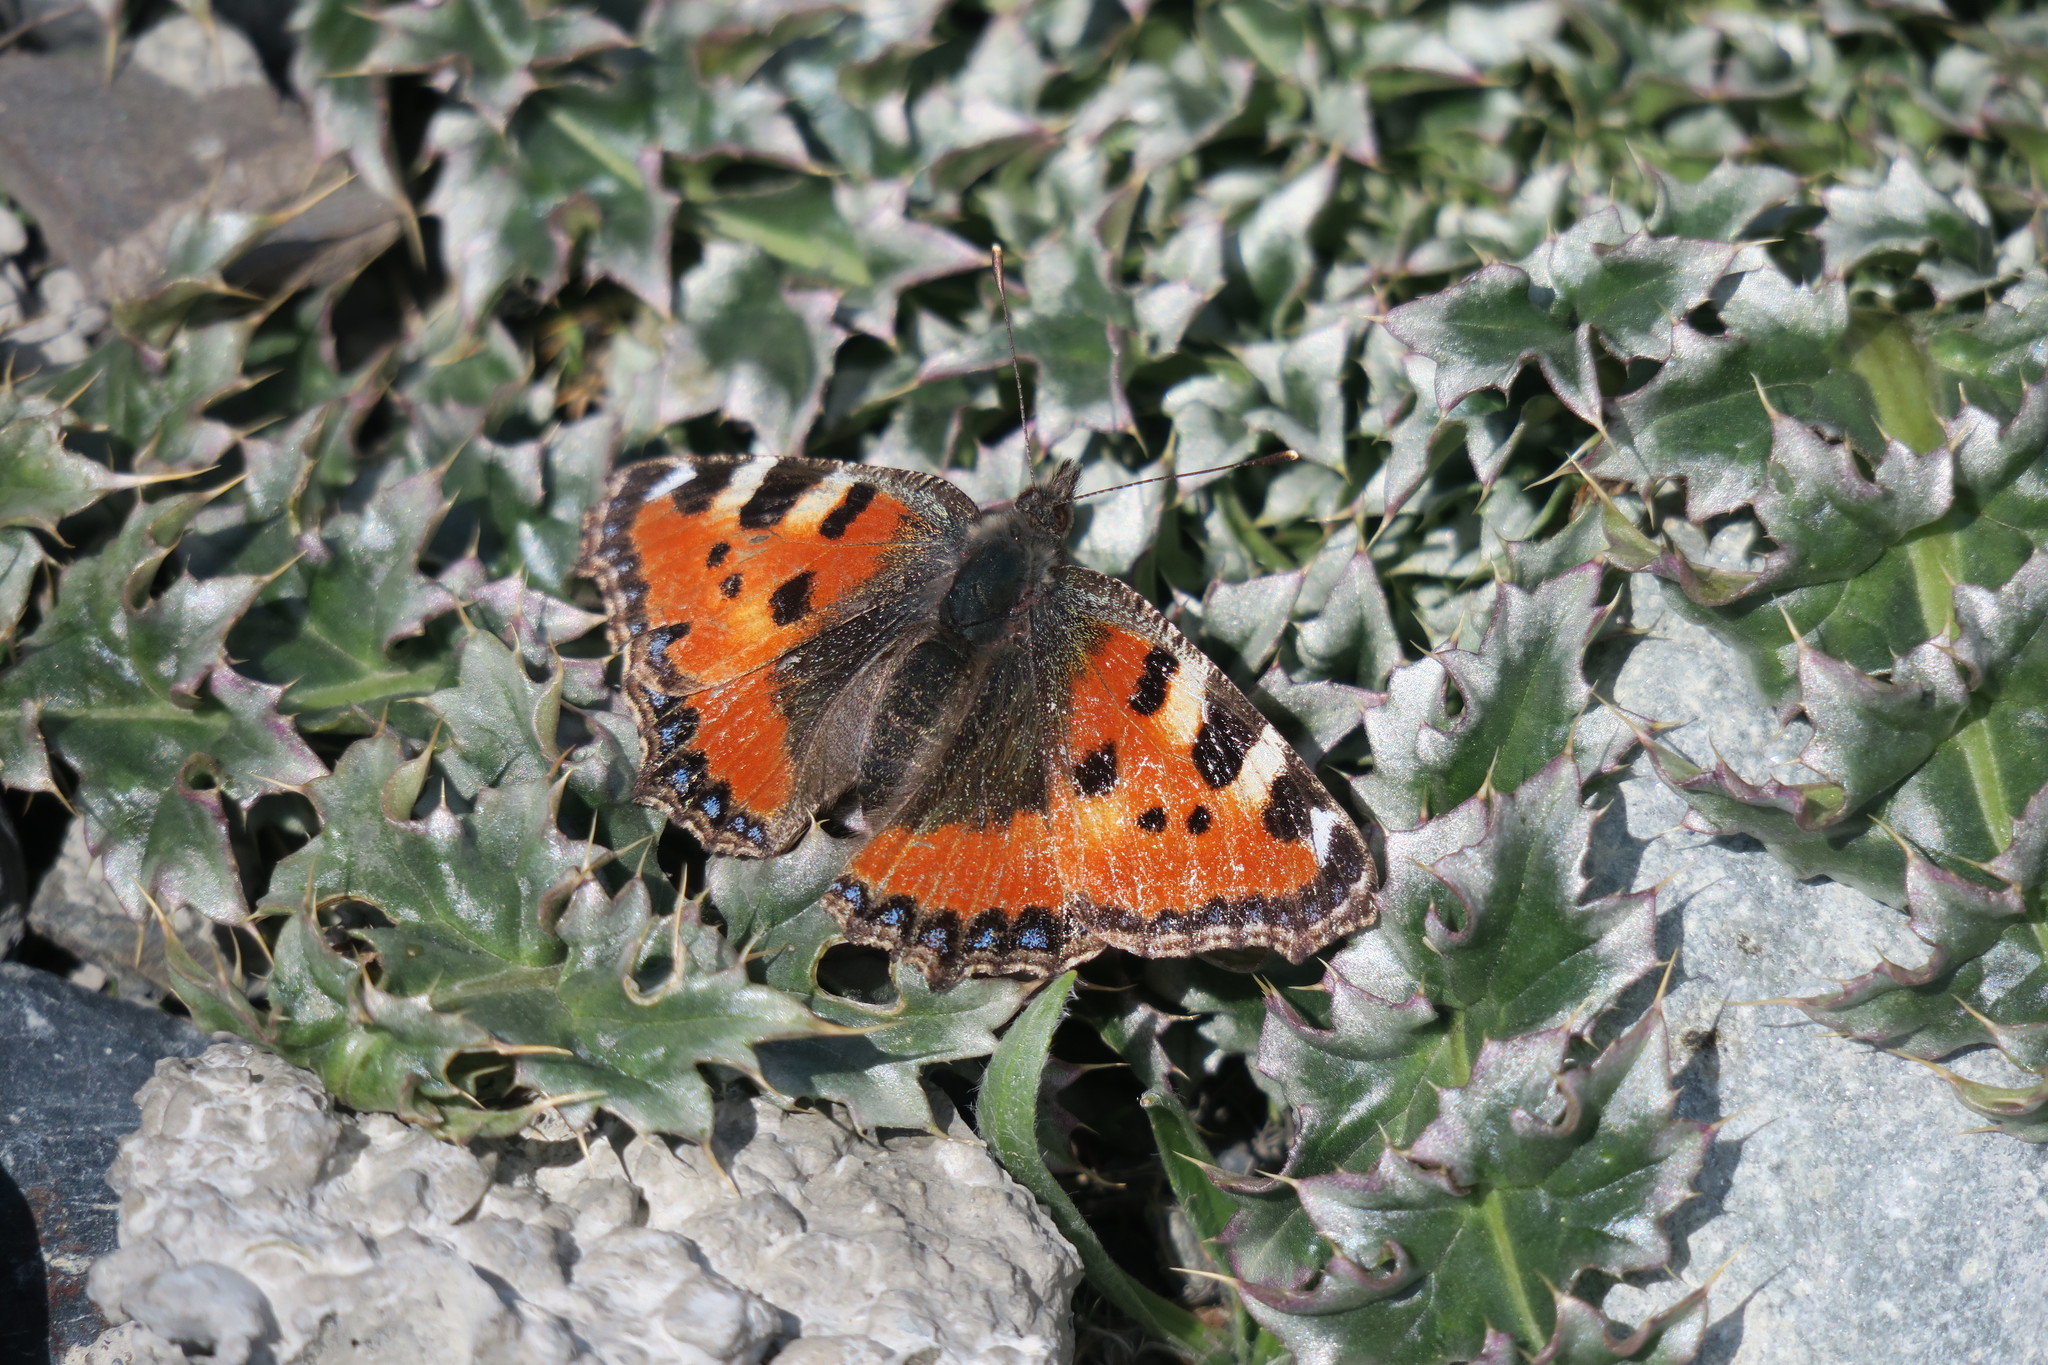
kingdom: Animalia
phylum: Arthropoda
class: Insecta
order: Lepidoptera
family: Nymphalidae
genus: Aglais
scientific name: Aglais urticae
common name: Small tortoiseshell
